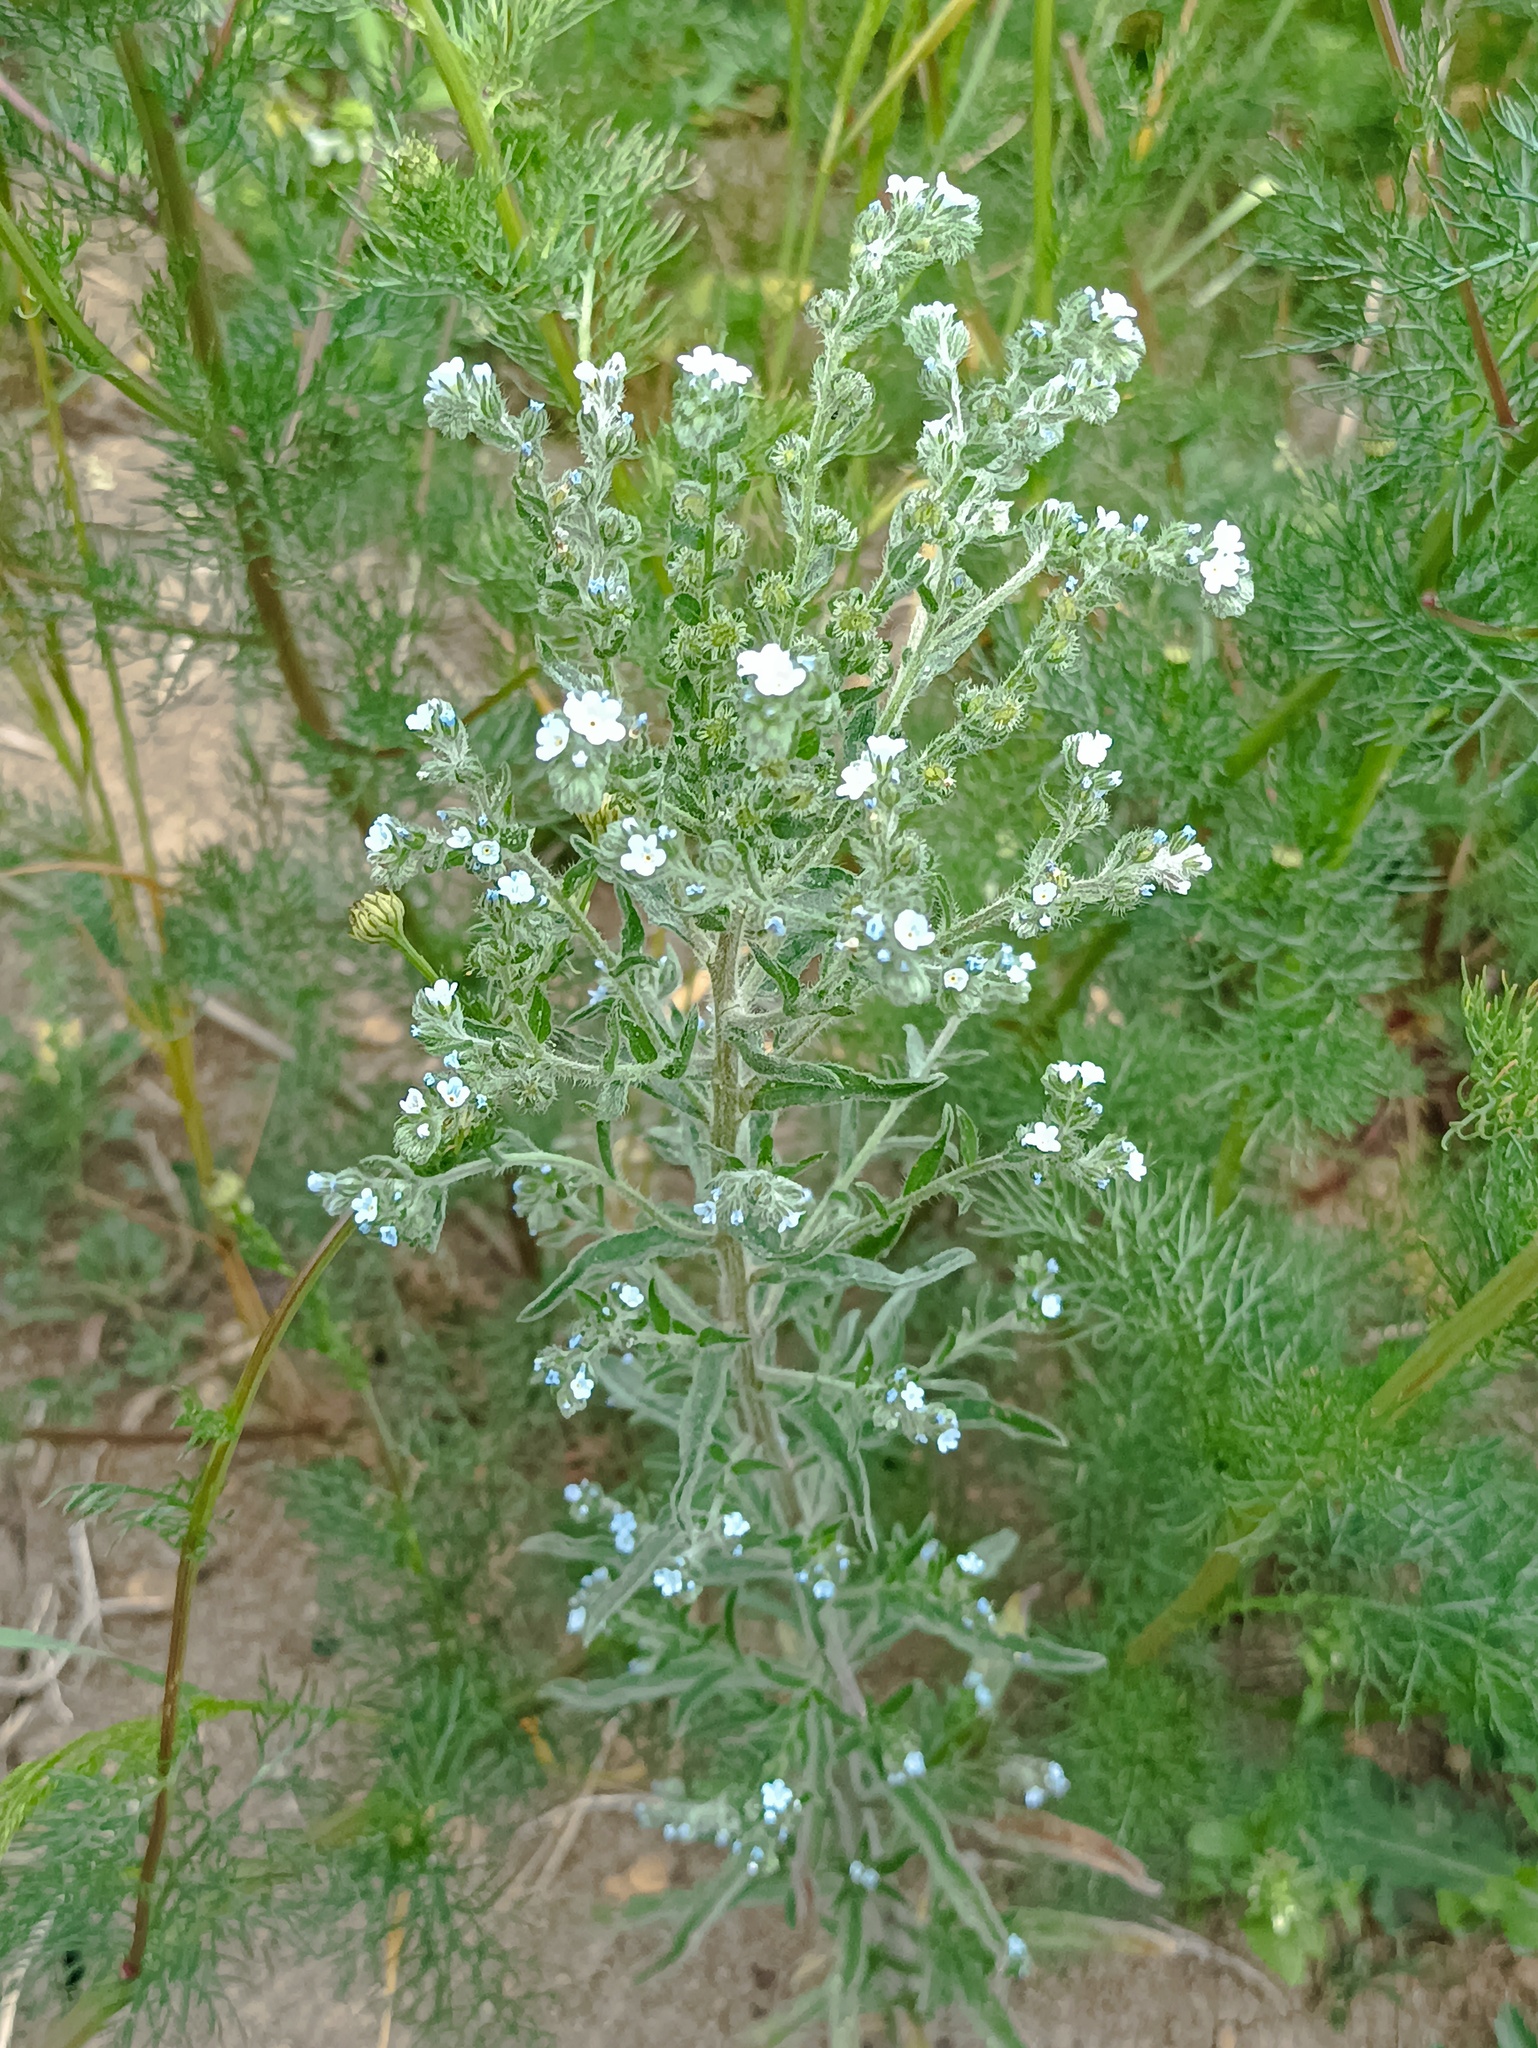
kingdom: Plantae
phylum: Tracheophyta
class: Magnoliopsida
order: Boraginales
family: Boraginaceae
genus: Lappula
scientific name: Lappula squarrosa
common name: European stickseed
